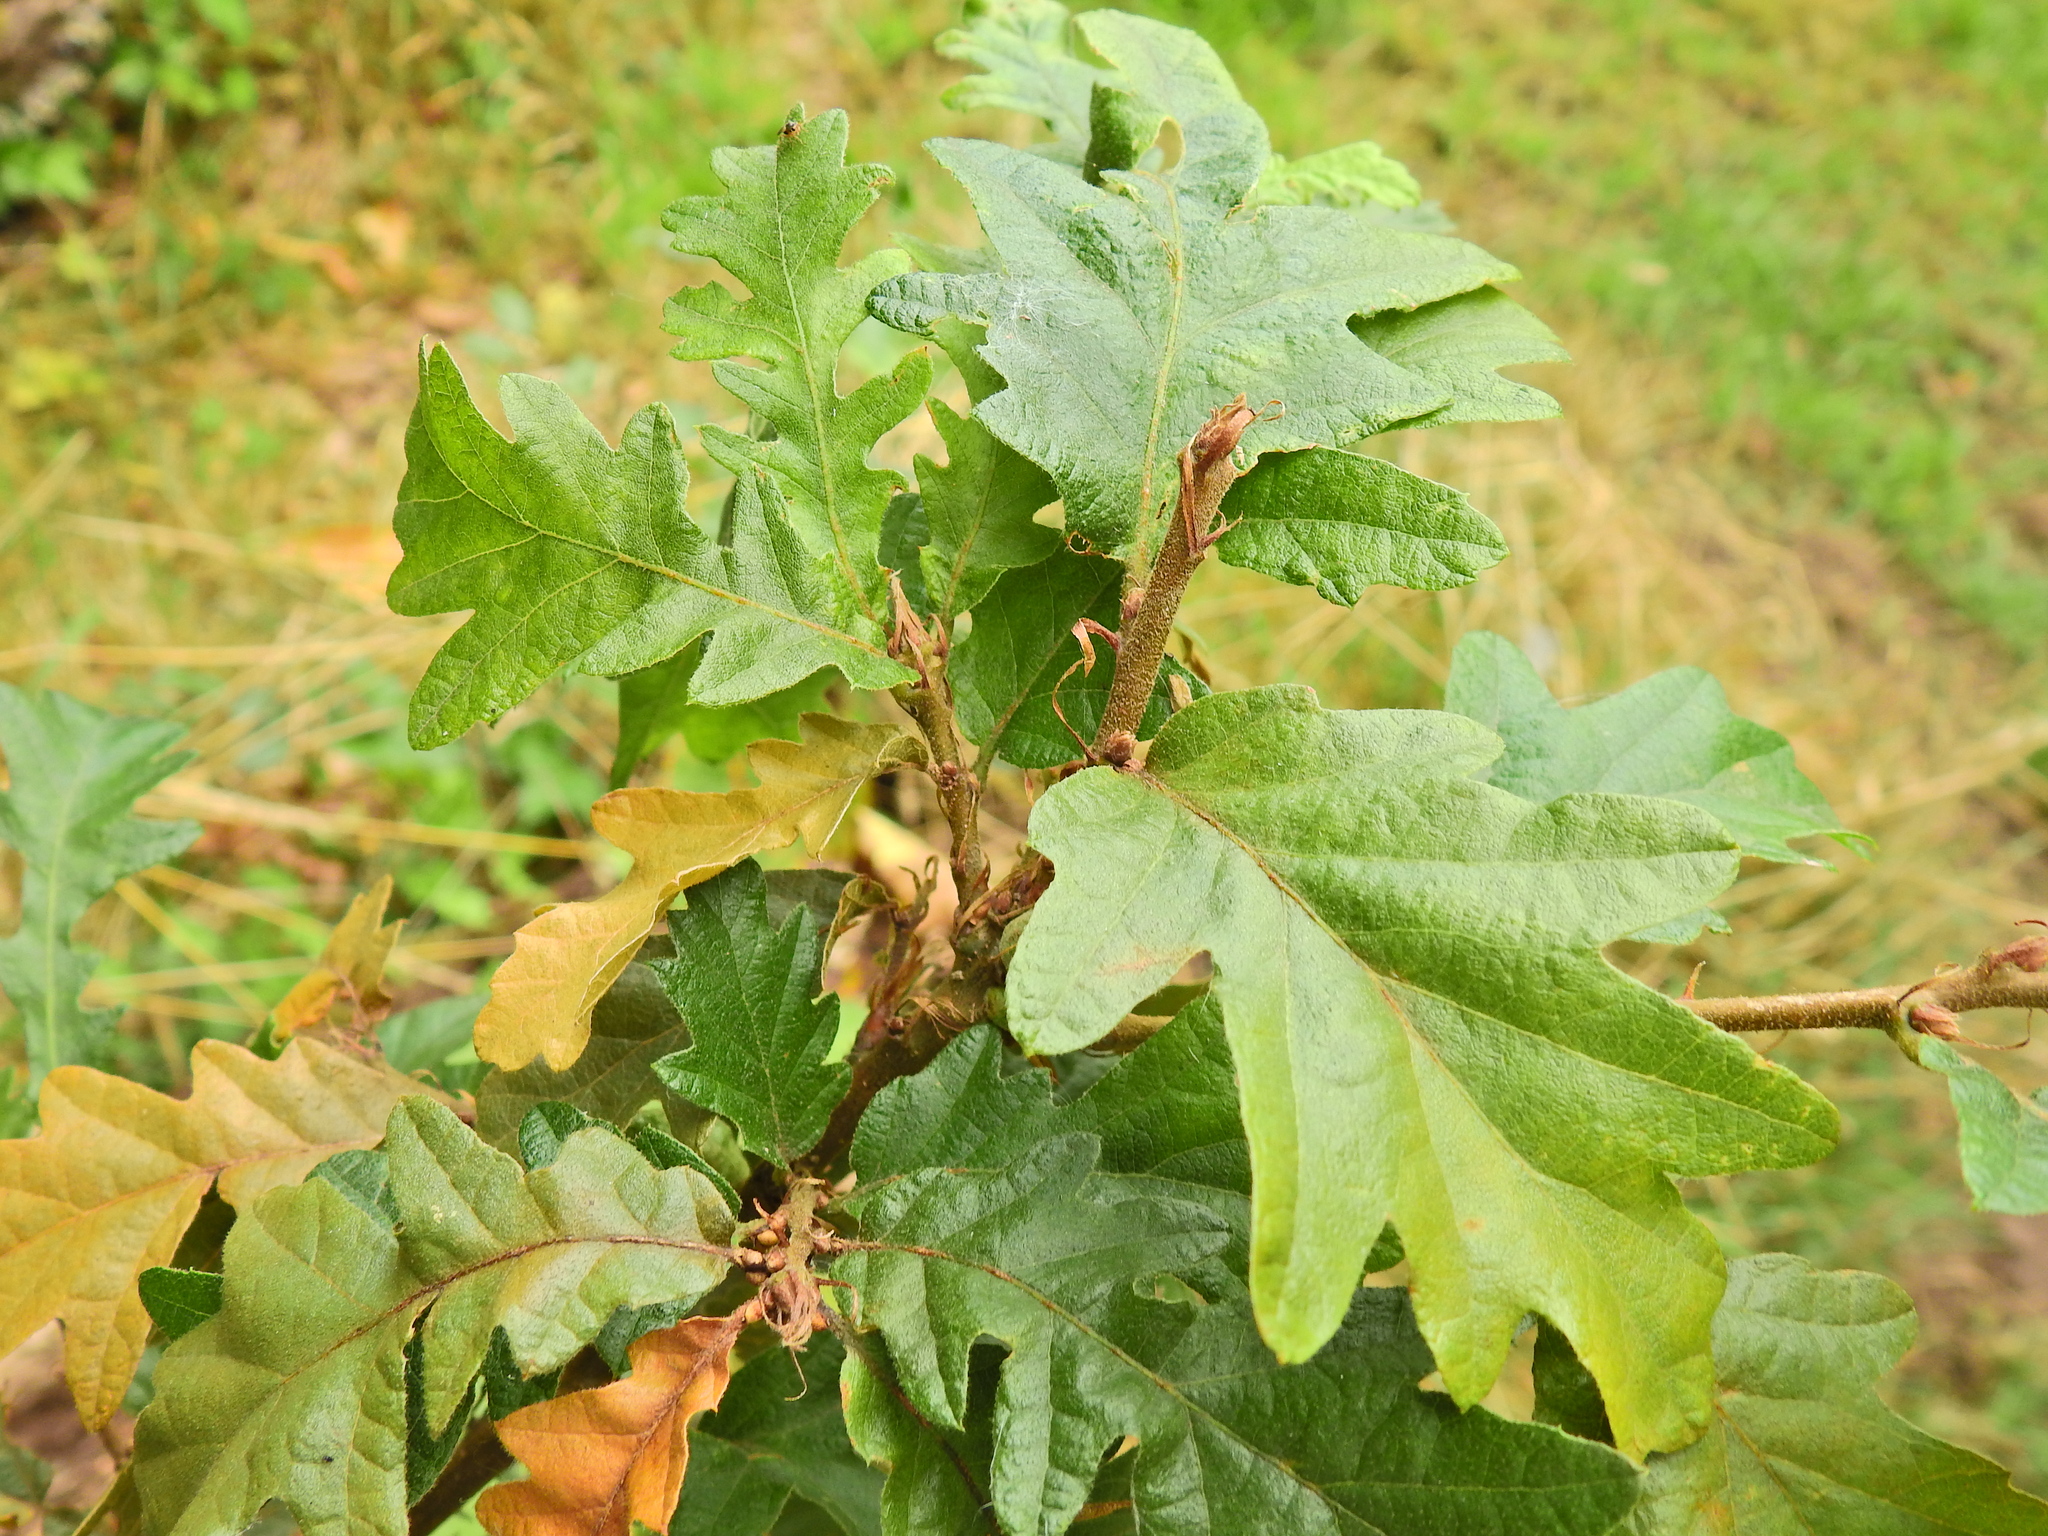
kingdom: Plantae
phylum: Tracheophyta
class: Magnoliopsida
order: Fagales
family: Fagaceae
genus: Quercus
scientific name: Quercus cerris
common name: Turkey oak
